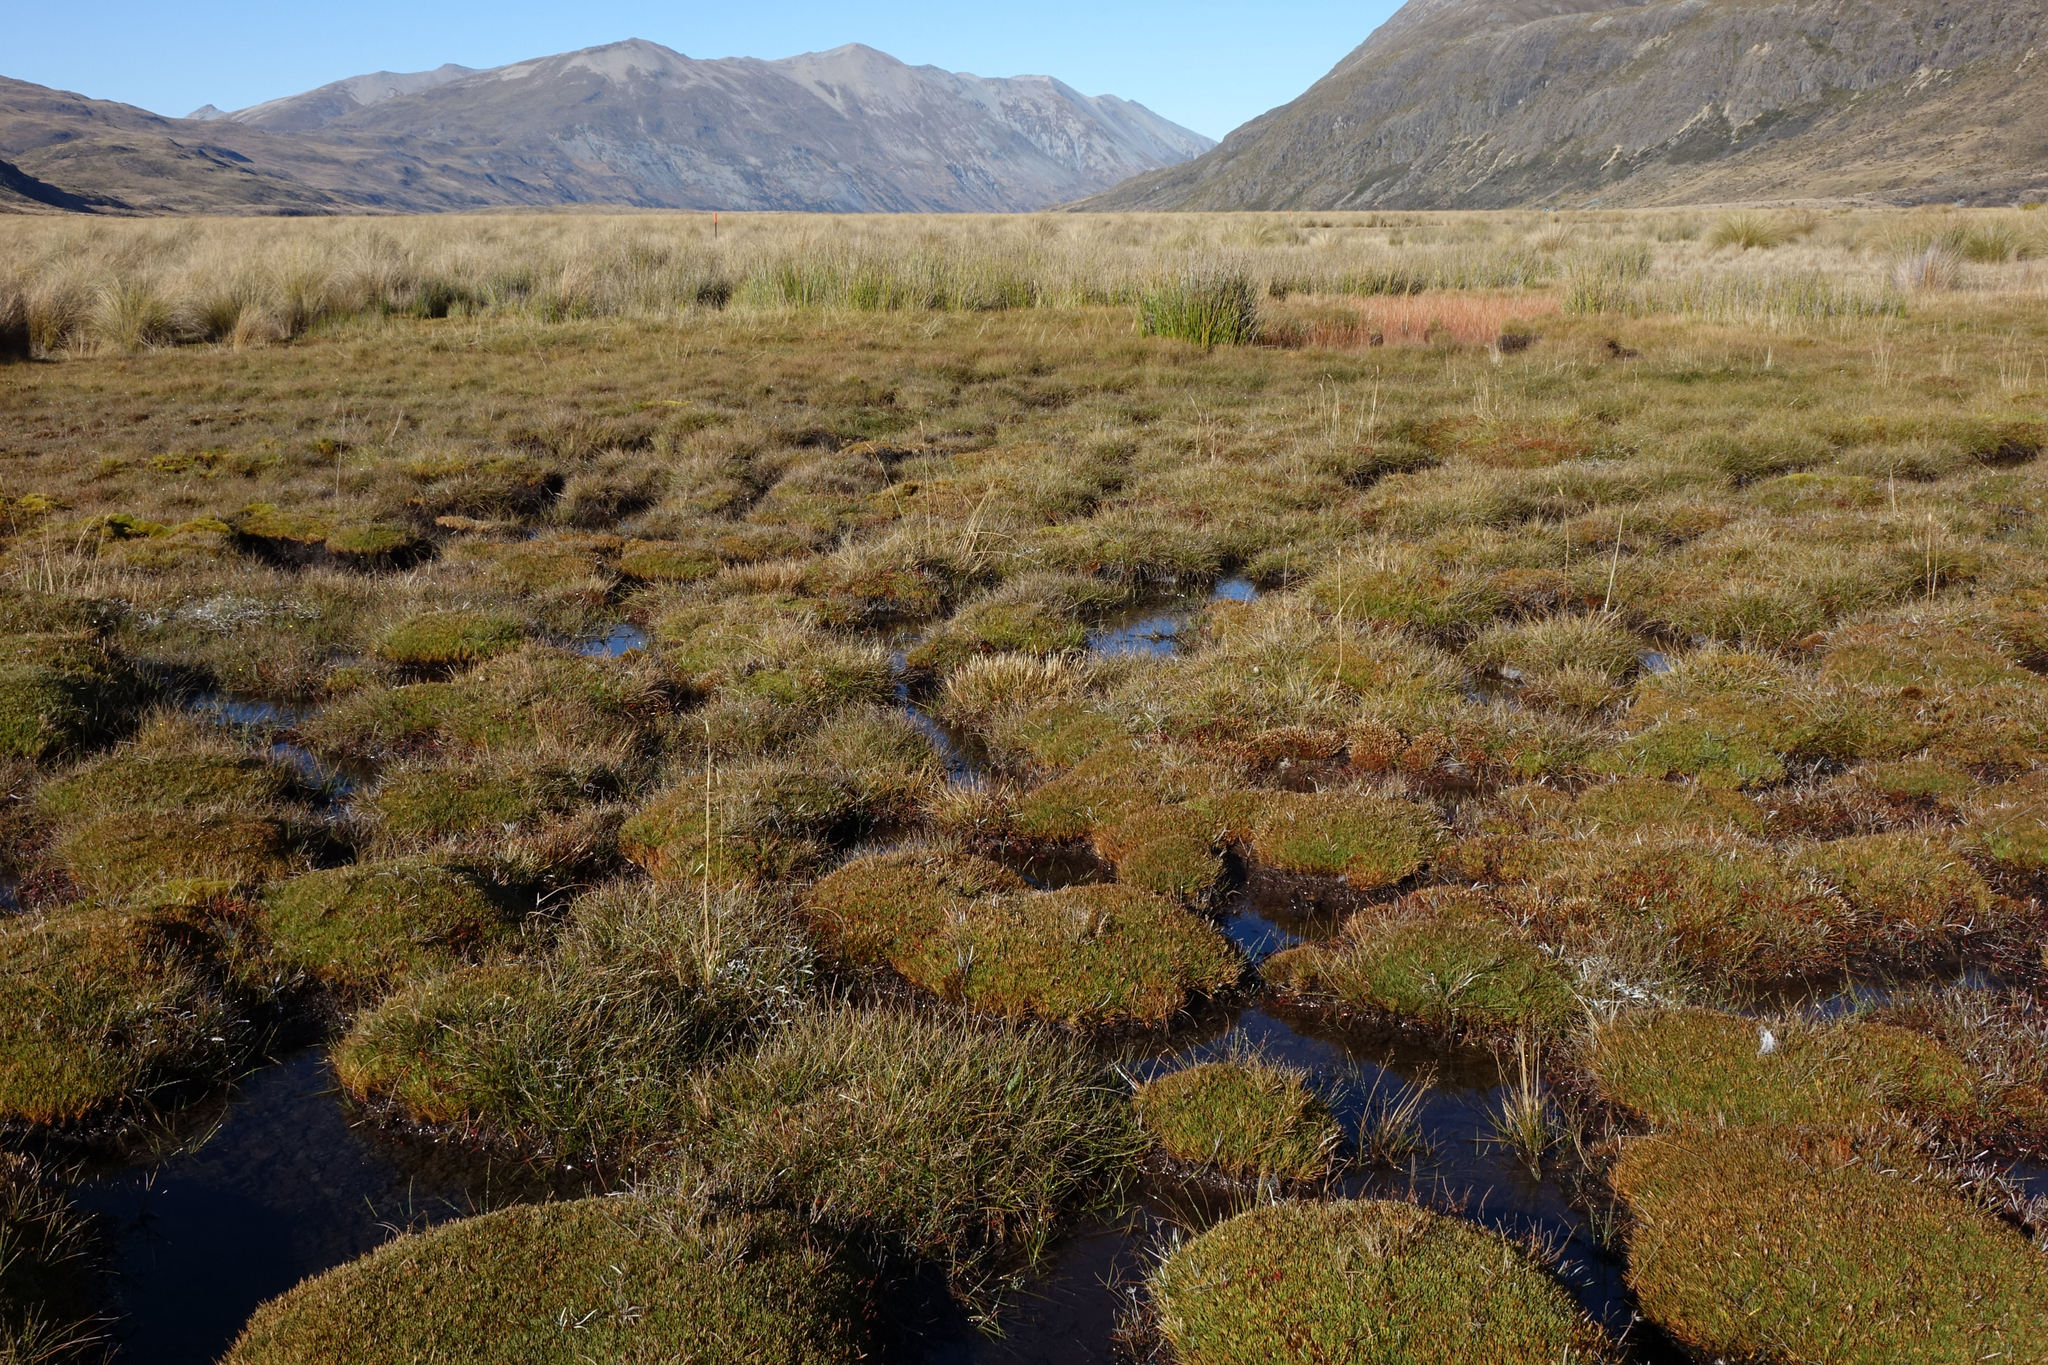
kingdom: Plantae
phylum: Tracheophyta
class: Liliopsida
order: Poales
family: Cyperaceae
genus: Oreobolus
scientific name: Oreobolus pectinatus
